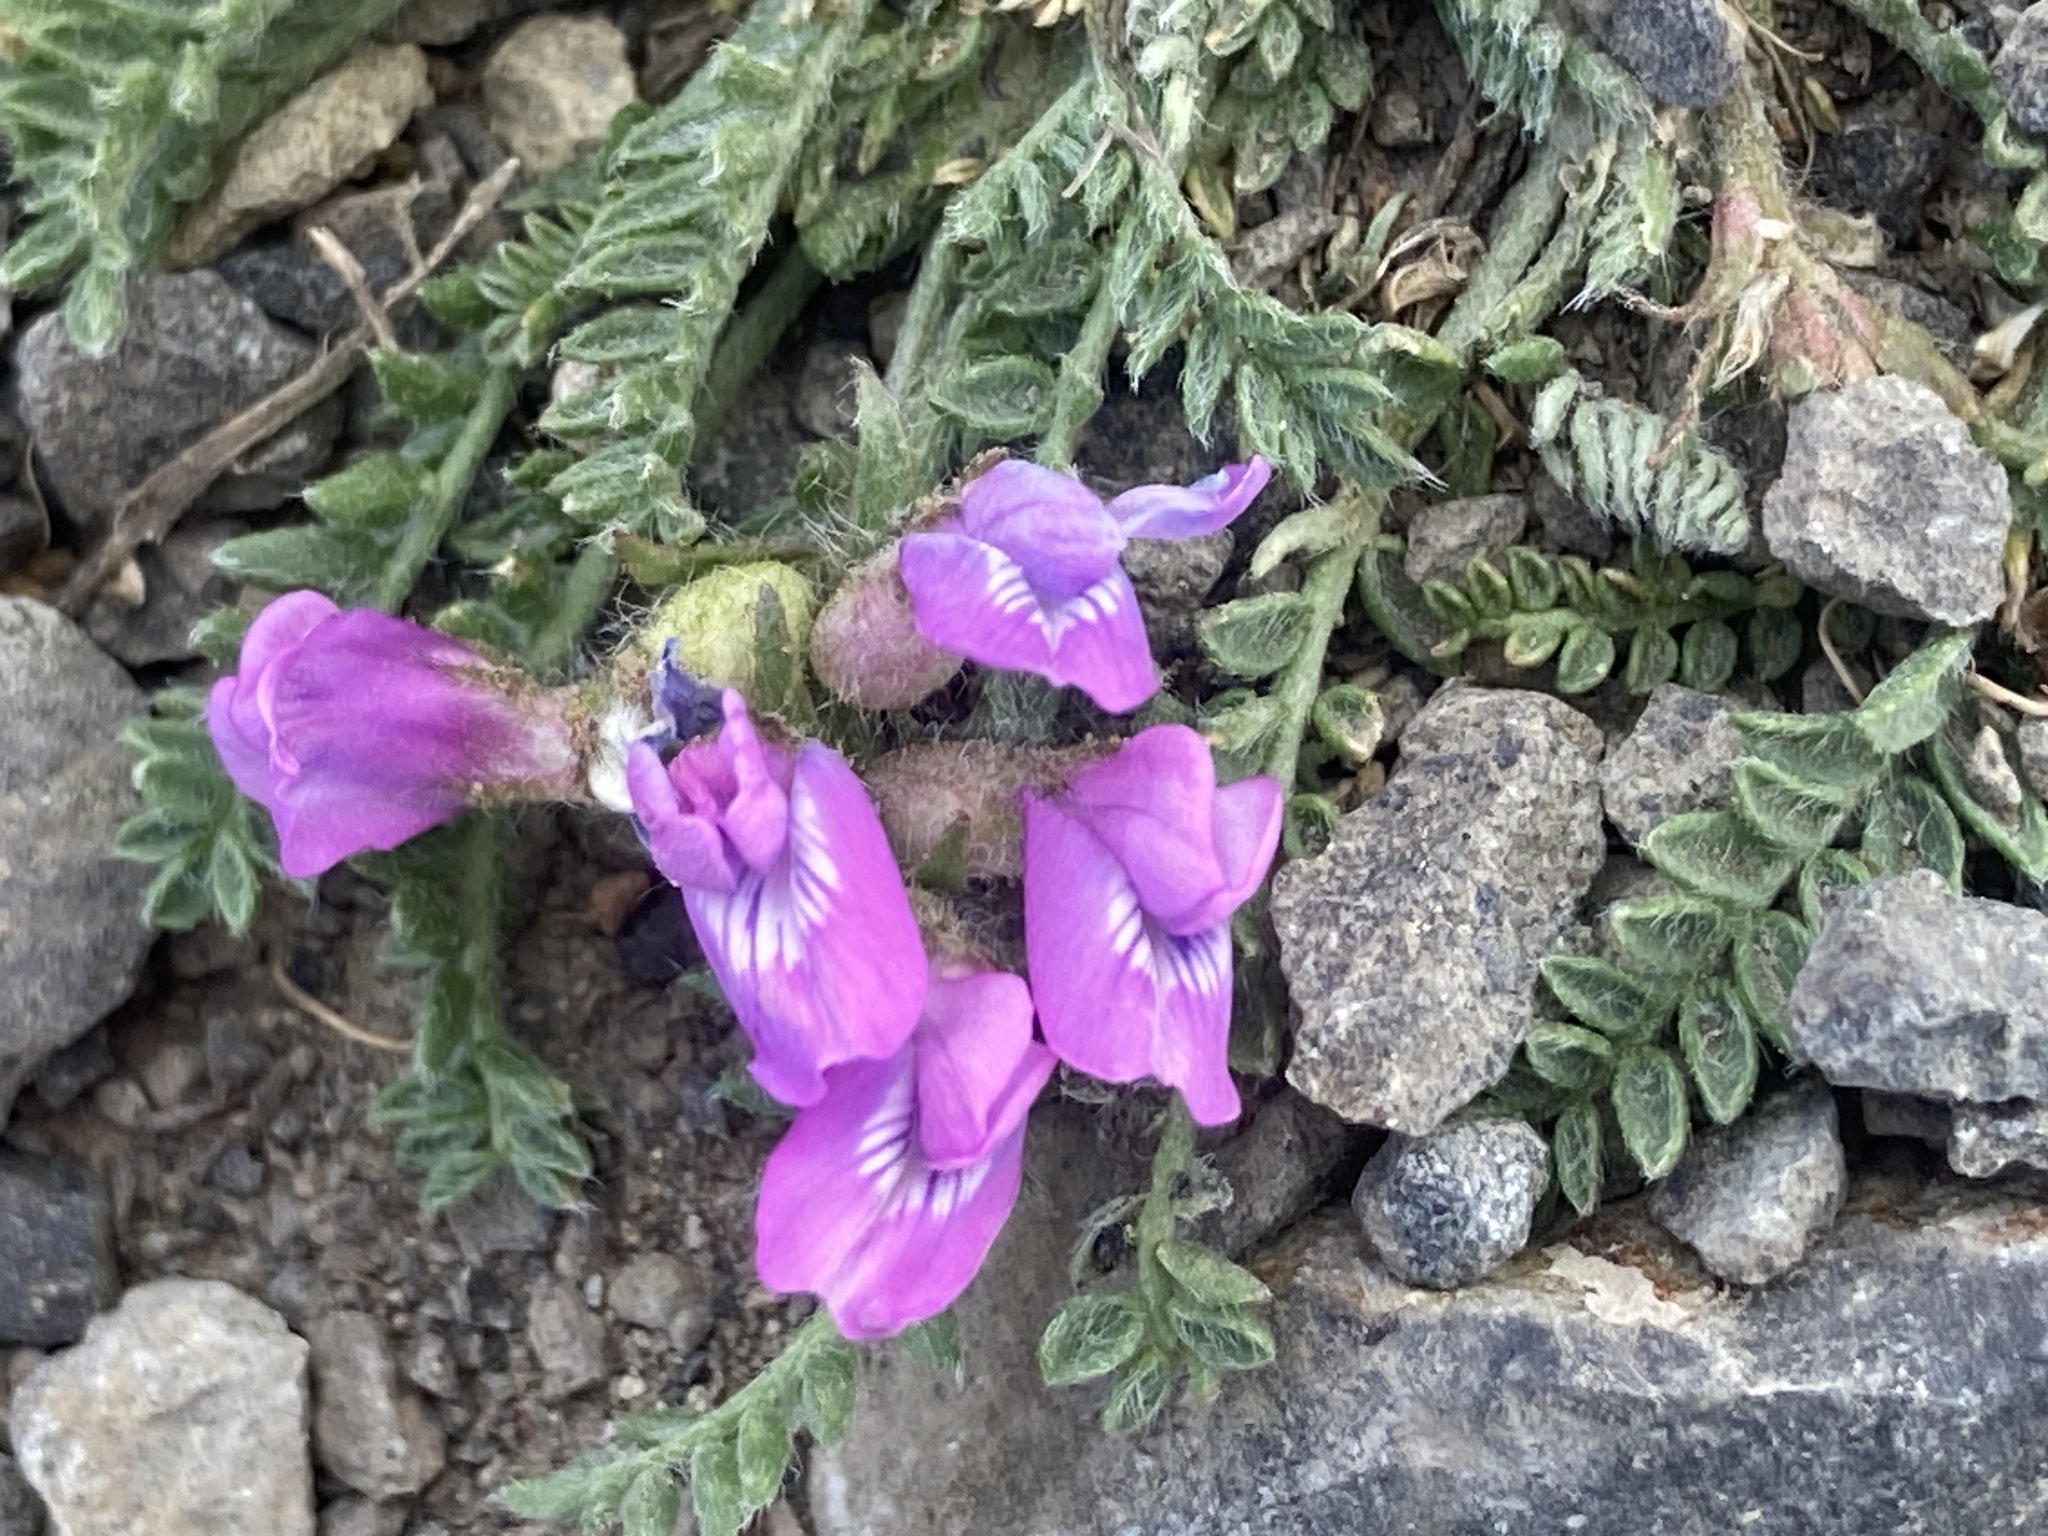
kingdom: Plantae
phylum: Tracheophyta
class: Magnoliopsida
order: Fabales
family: Fabaceae
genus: Oxytropis
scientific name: Oxytropis borealis
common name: Boreal locoweed
